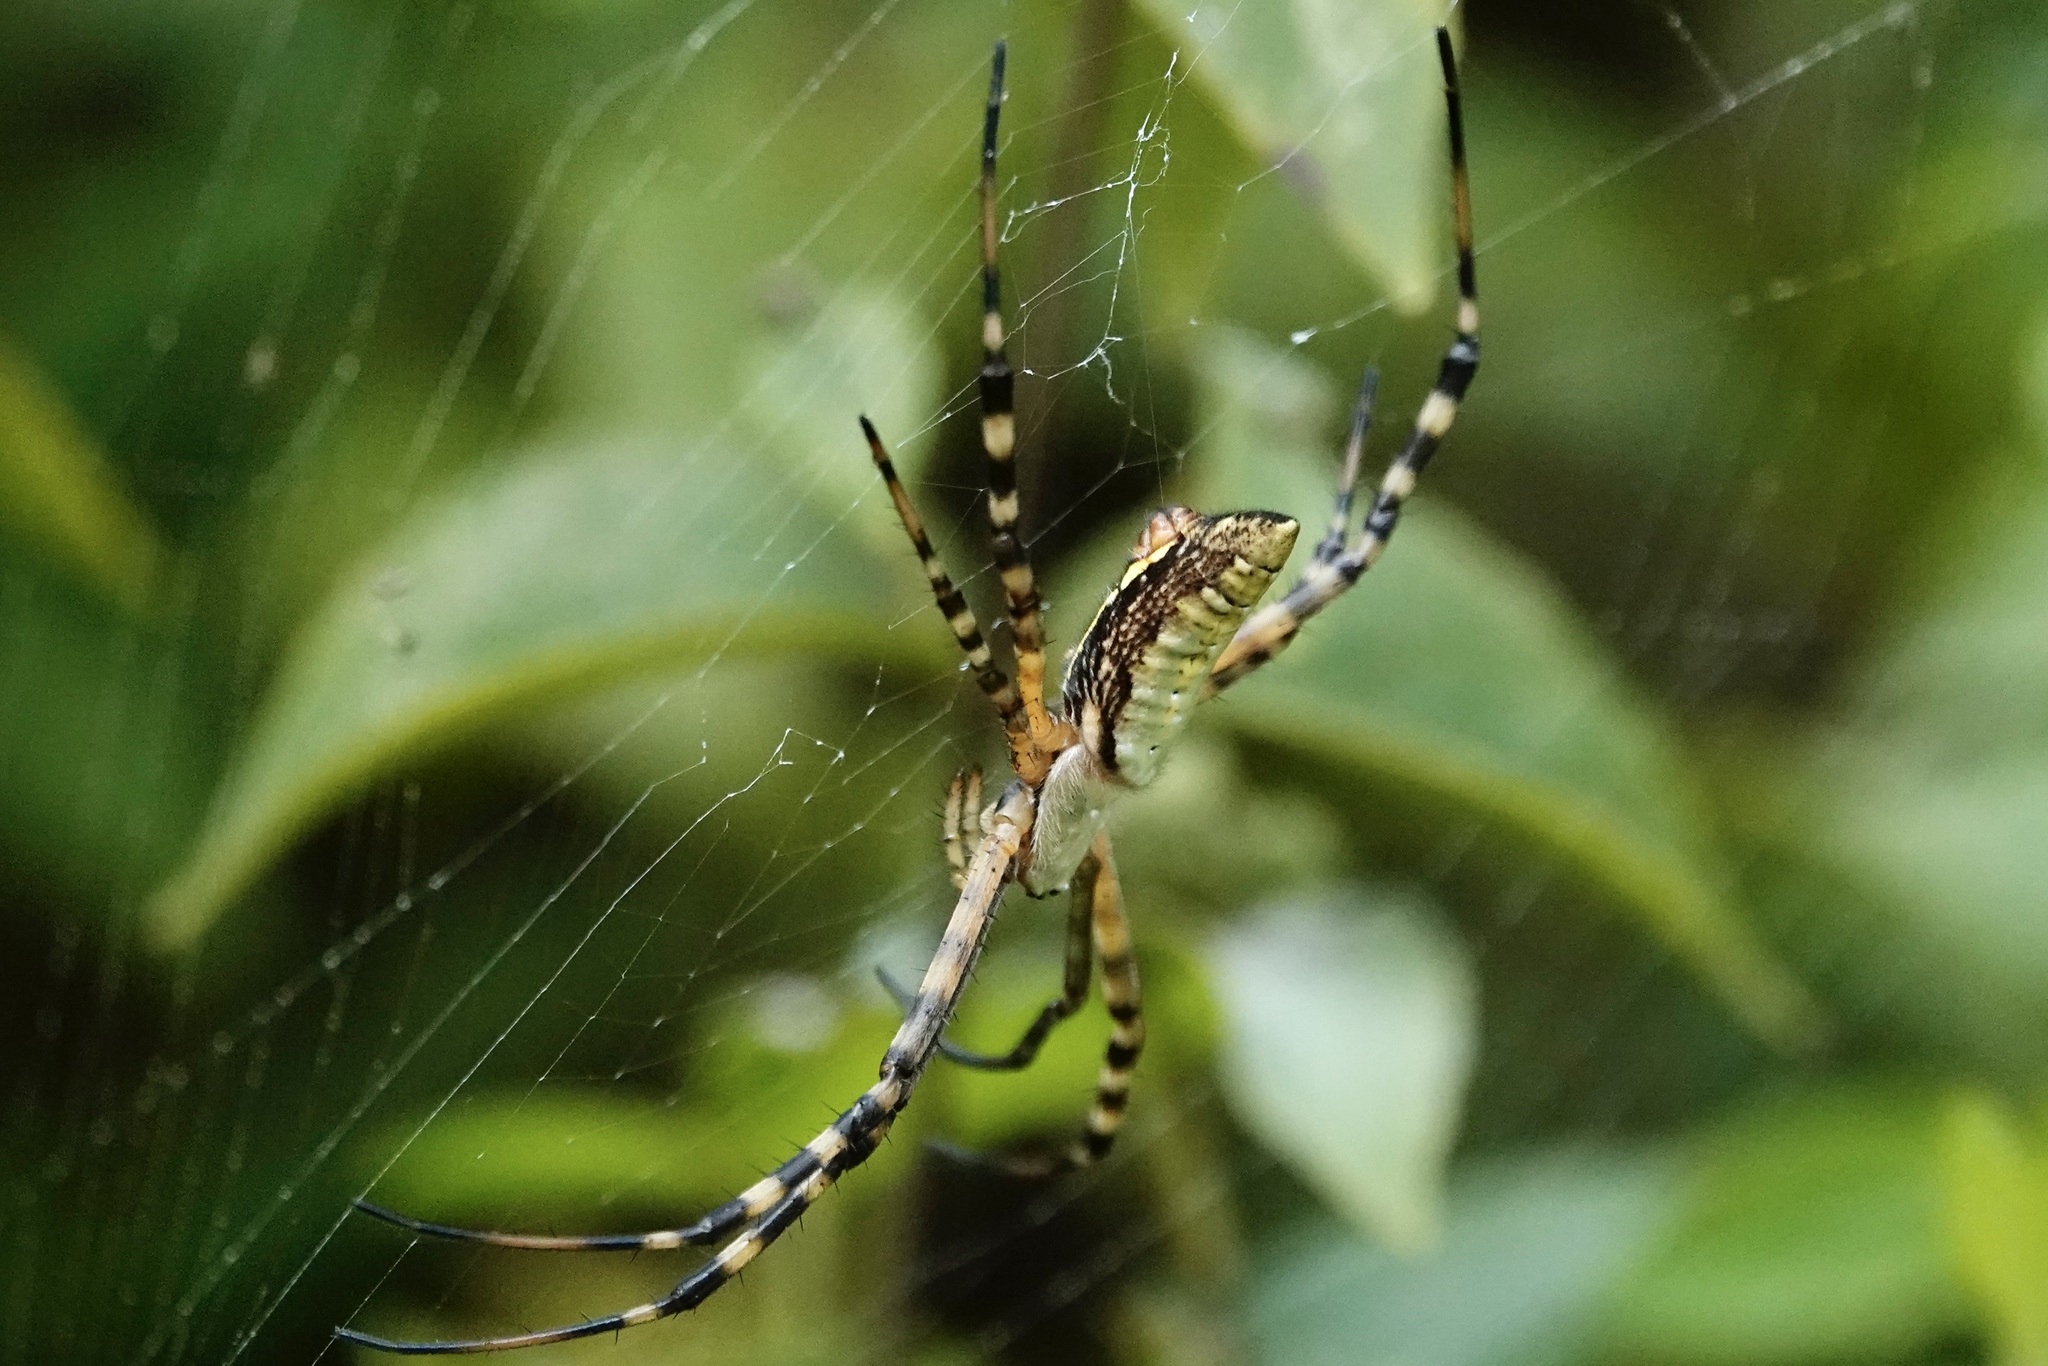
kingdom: Animalia
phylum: Arthropoda
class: Arachnida
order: Araneae
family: Araneidae
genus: Argiope
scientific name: Argiope trifasciata
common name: Banded garden spider
